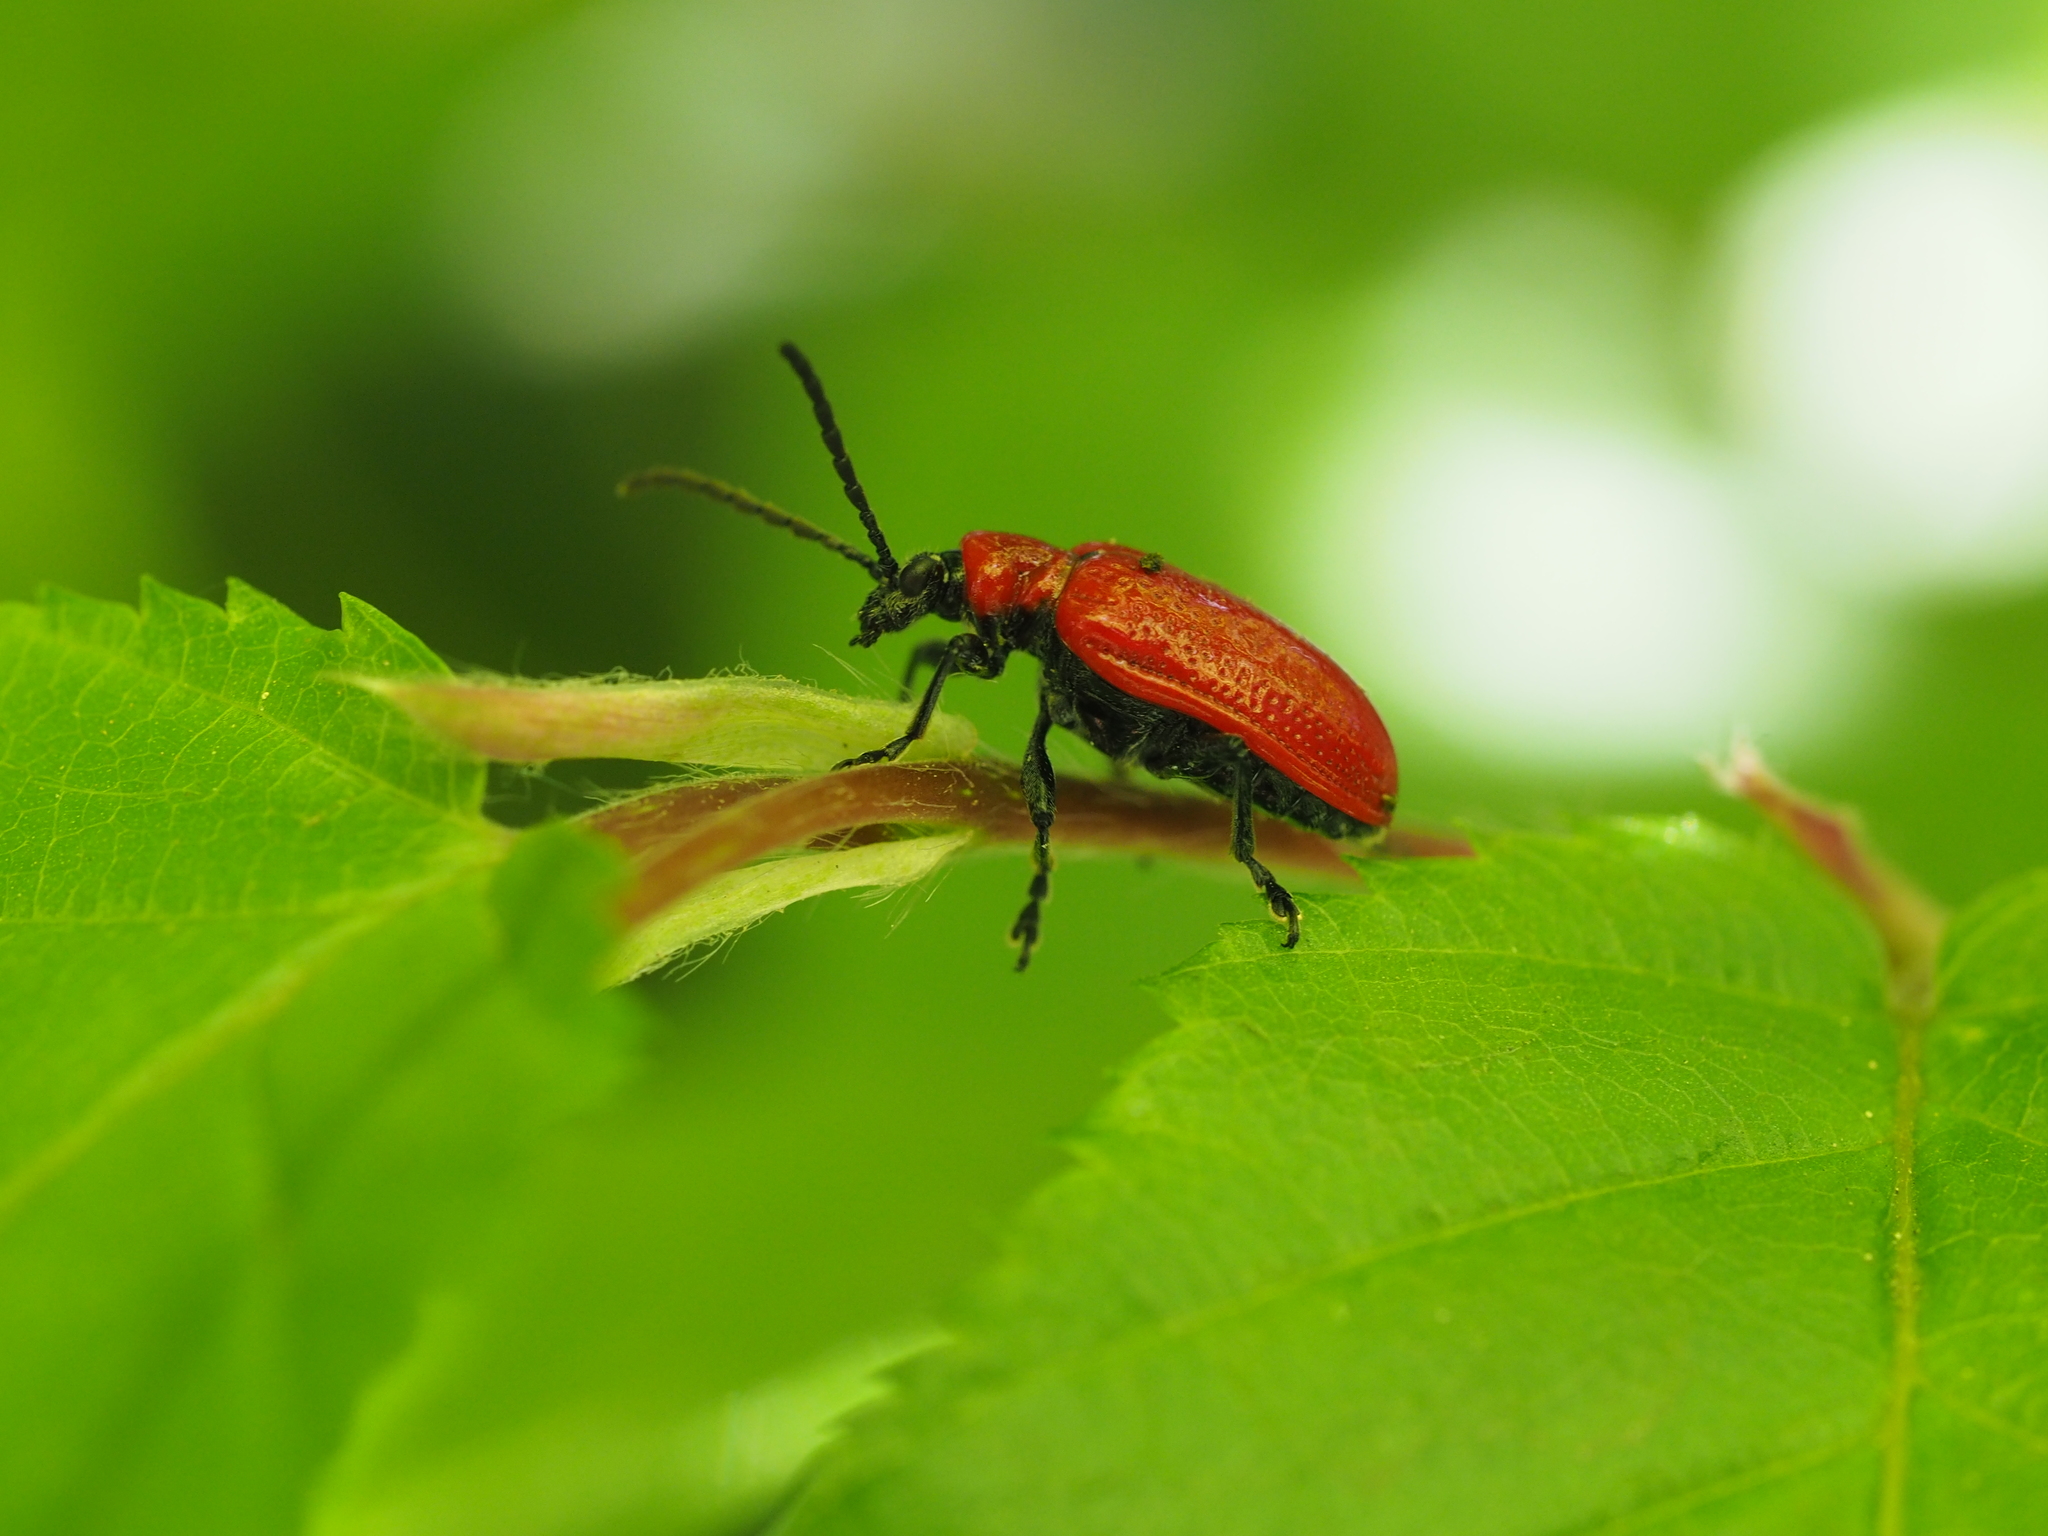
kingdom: Animalia
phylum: Arthropoda
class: Insecta
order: Coleoptera
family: Chrysomelidae
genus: Lilioceris
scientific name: Lilioceris lilii
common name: Lily beetle
